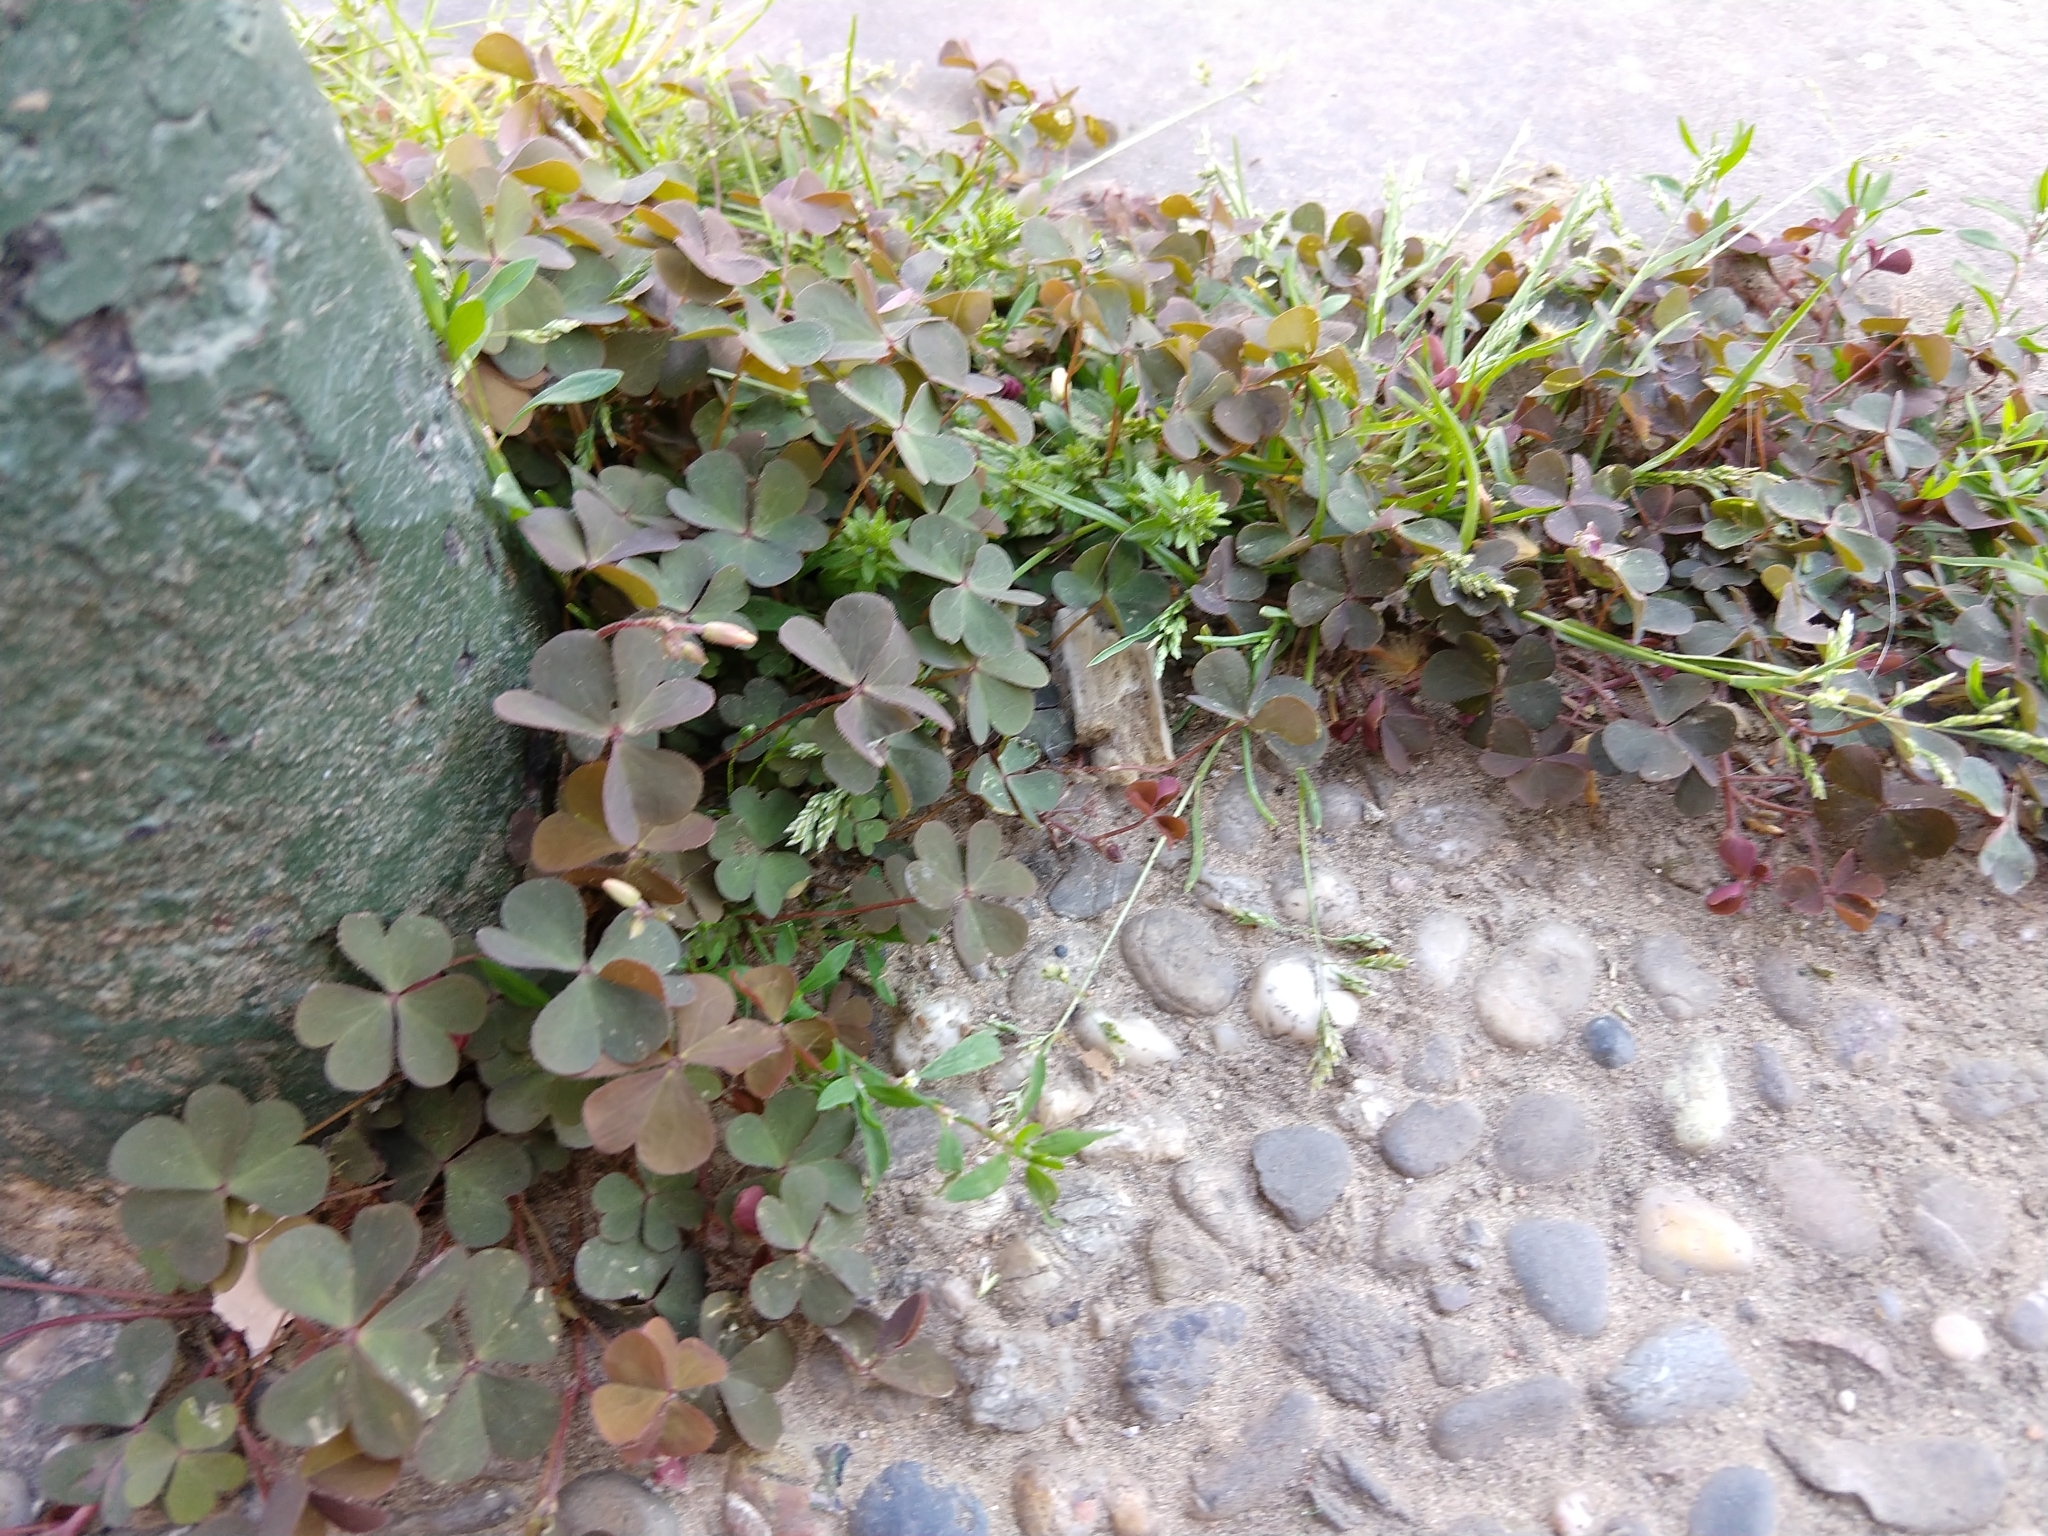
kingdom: Plantae
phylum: Tracheophyta
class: Magnoliopsida
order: Oxalidales
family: Oxalidaceae
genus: Oxalis
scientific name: Oxalis corniculata
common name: Procumbent yellow-sorrel
